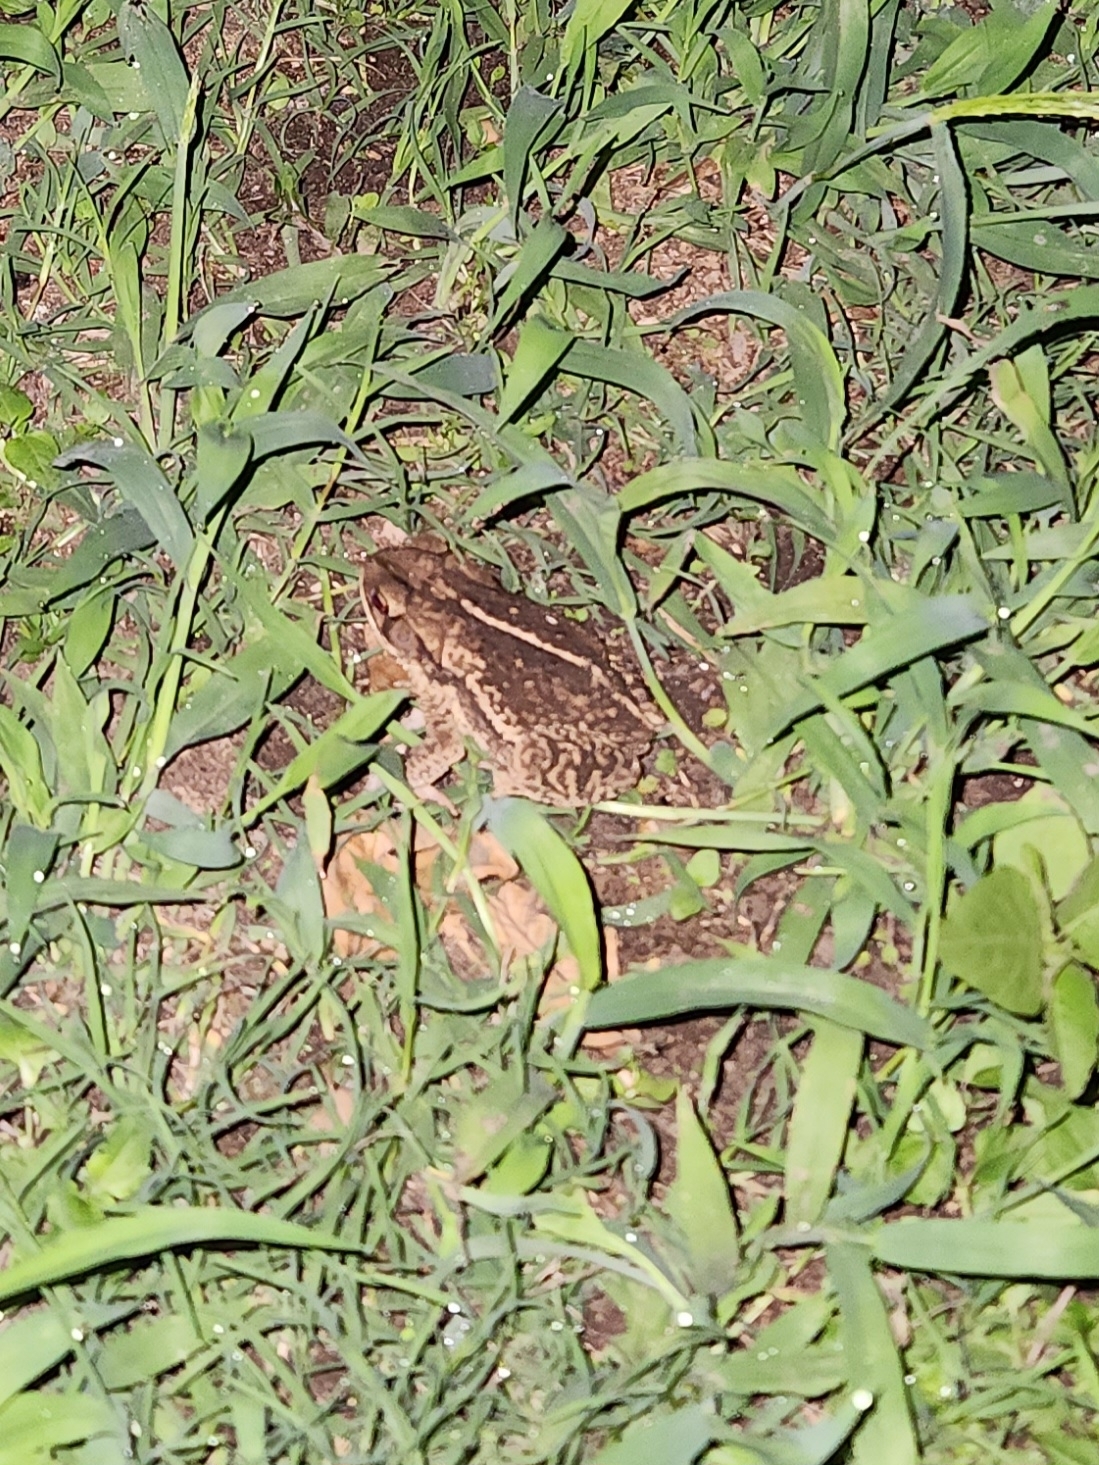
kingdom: Animalia
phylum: Chordata
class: Amphibia
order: Anura
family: Bufonidae
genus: Incilius
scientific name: Incilius nebulifer
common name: Gulf coast toad
